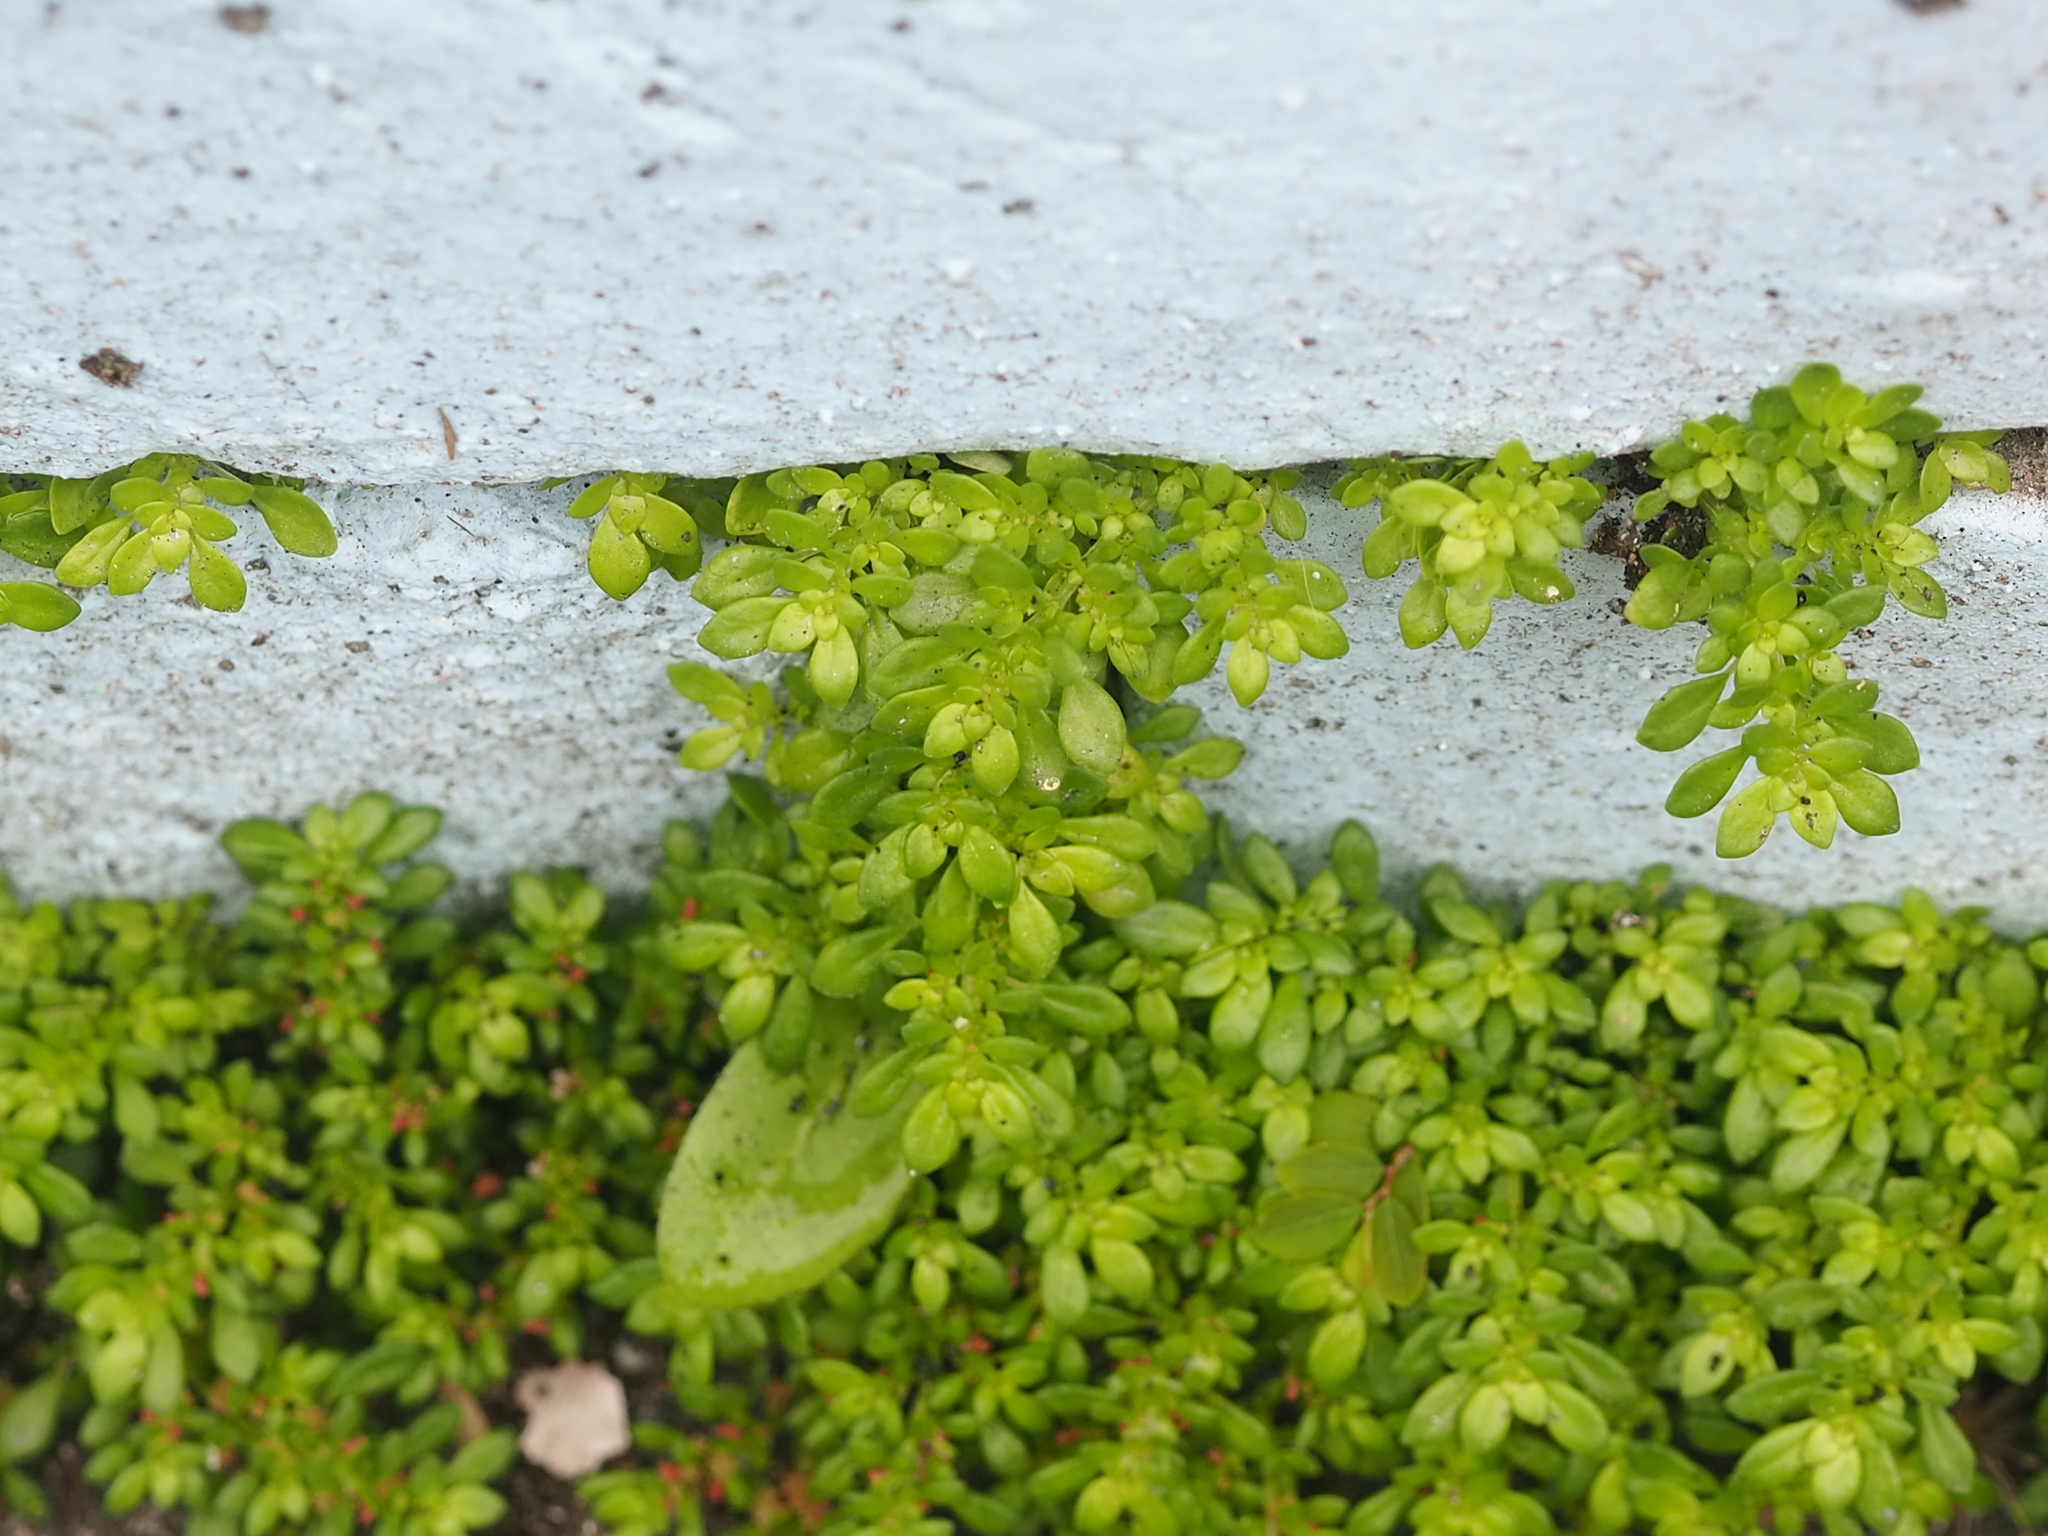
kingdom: Plantae
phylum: Tracheophyta
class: Magnoliopsida
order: Rosales
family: Urticaceae
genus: Pilea
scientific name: Pilea microphylla
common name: Artillery-plant
